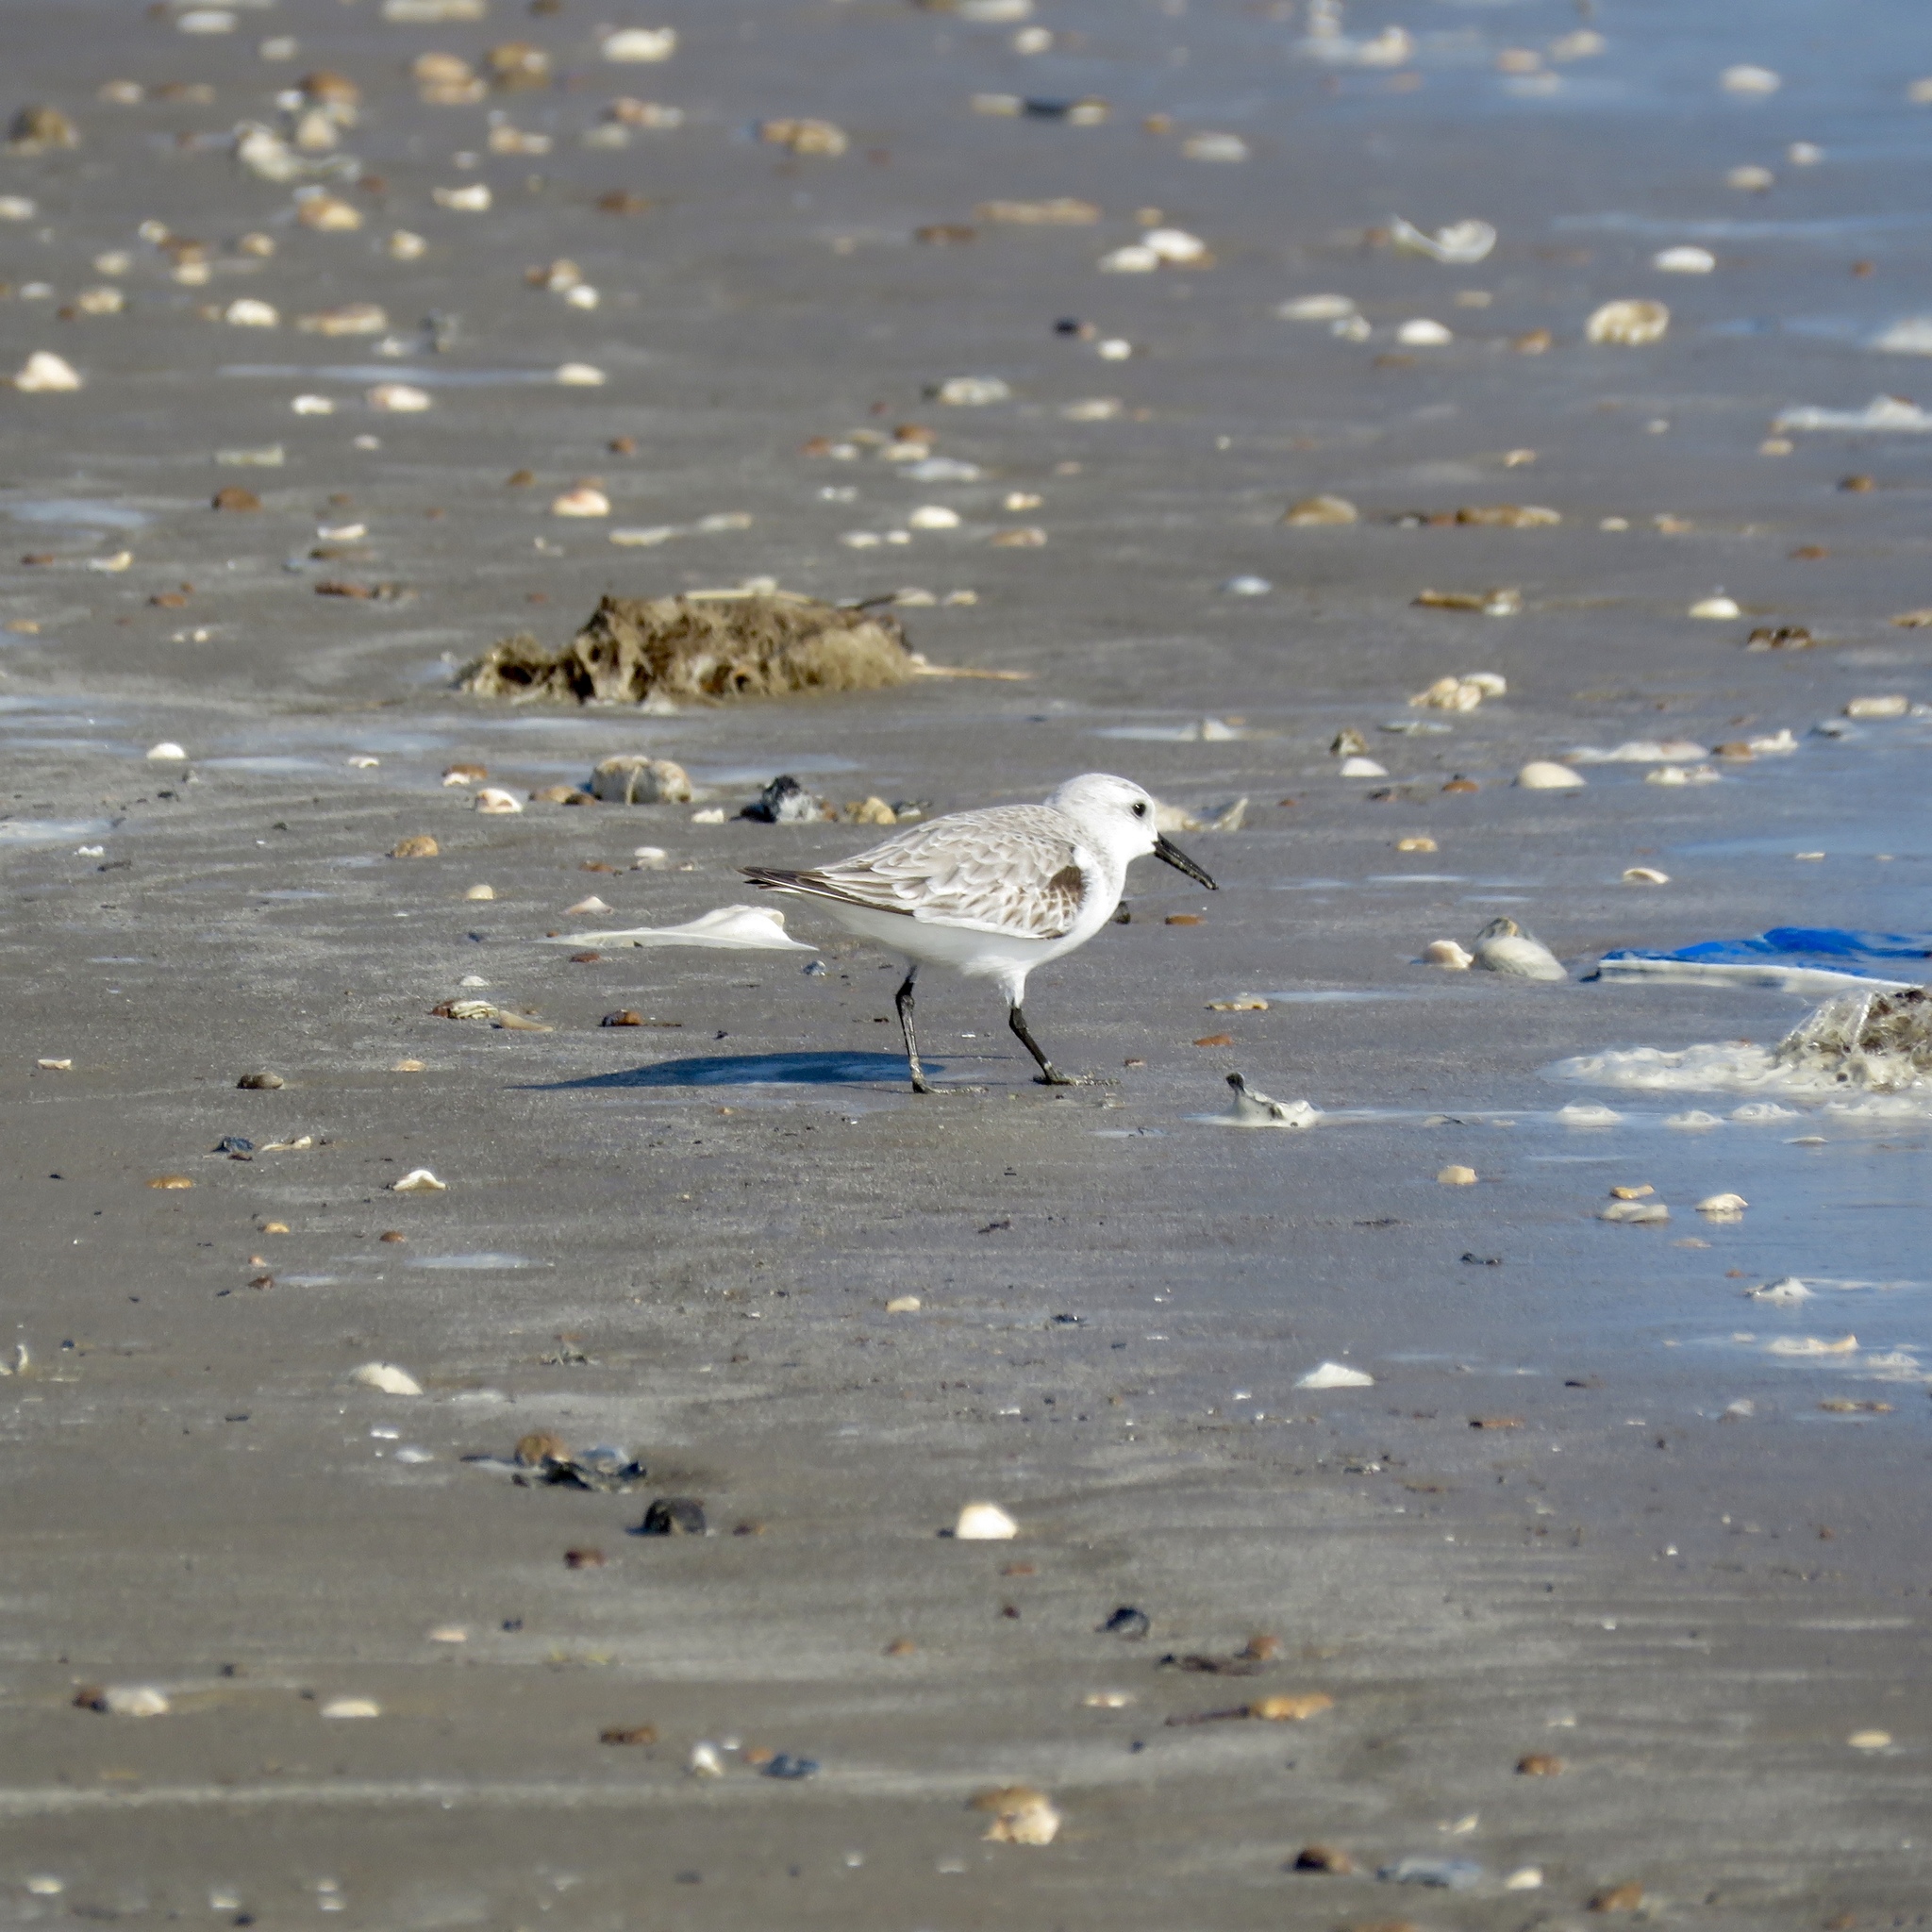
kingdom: Animalia
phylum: Chordata
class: Aves
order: Charadriiformes
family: Scolopacidae
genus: Calidris
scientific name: Calidris alba
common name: Sanderling
